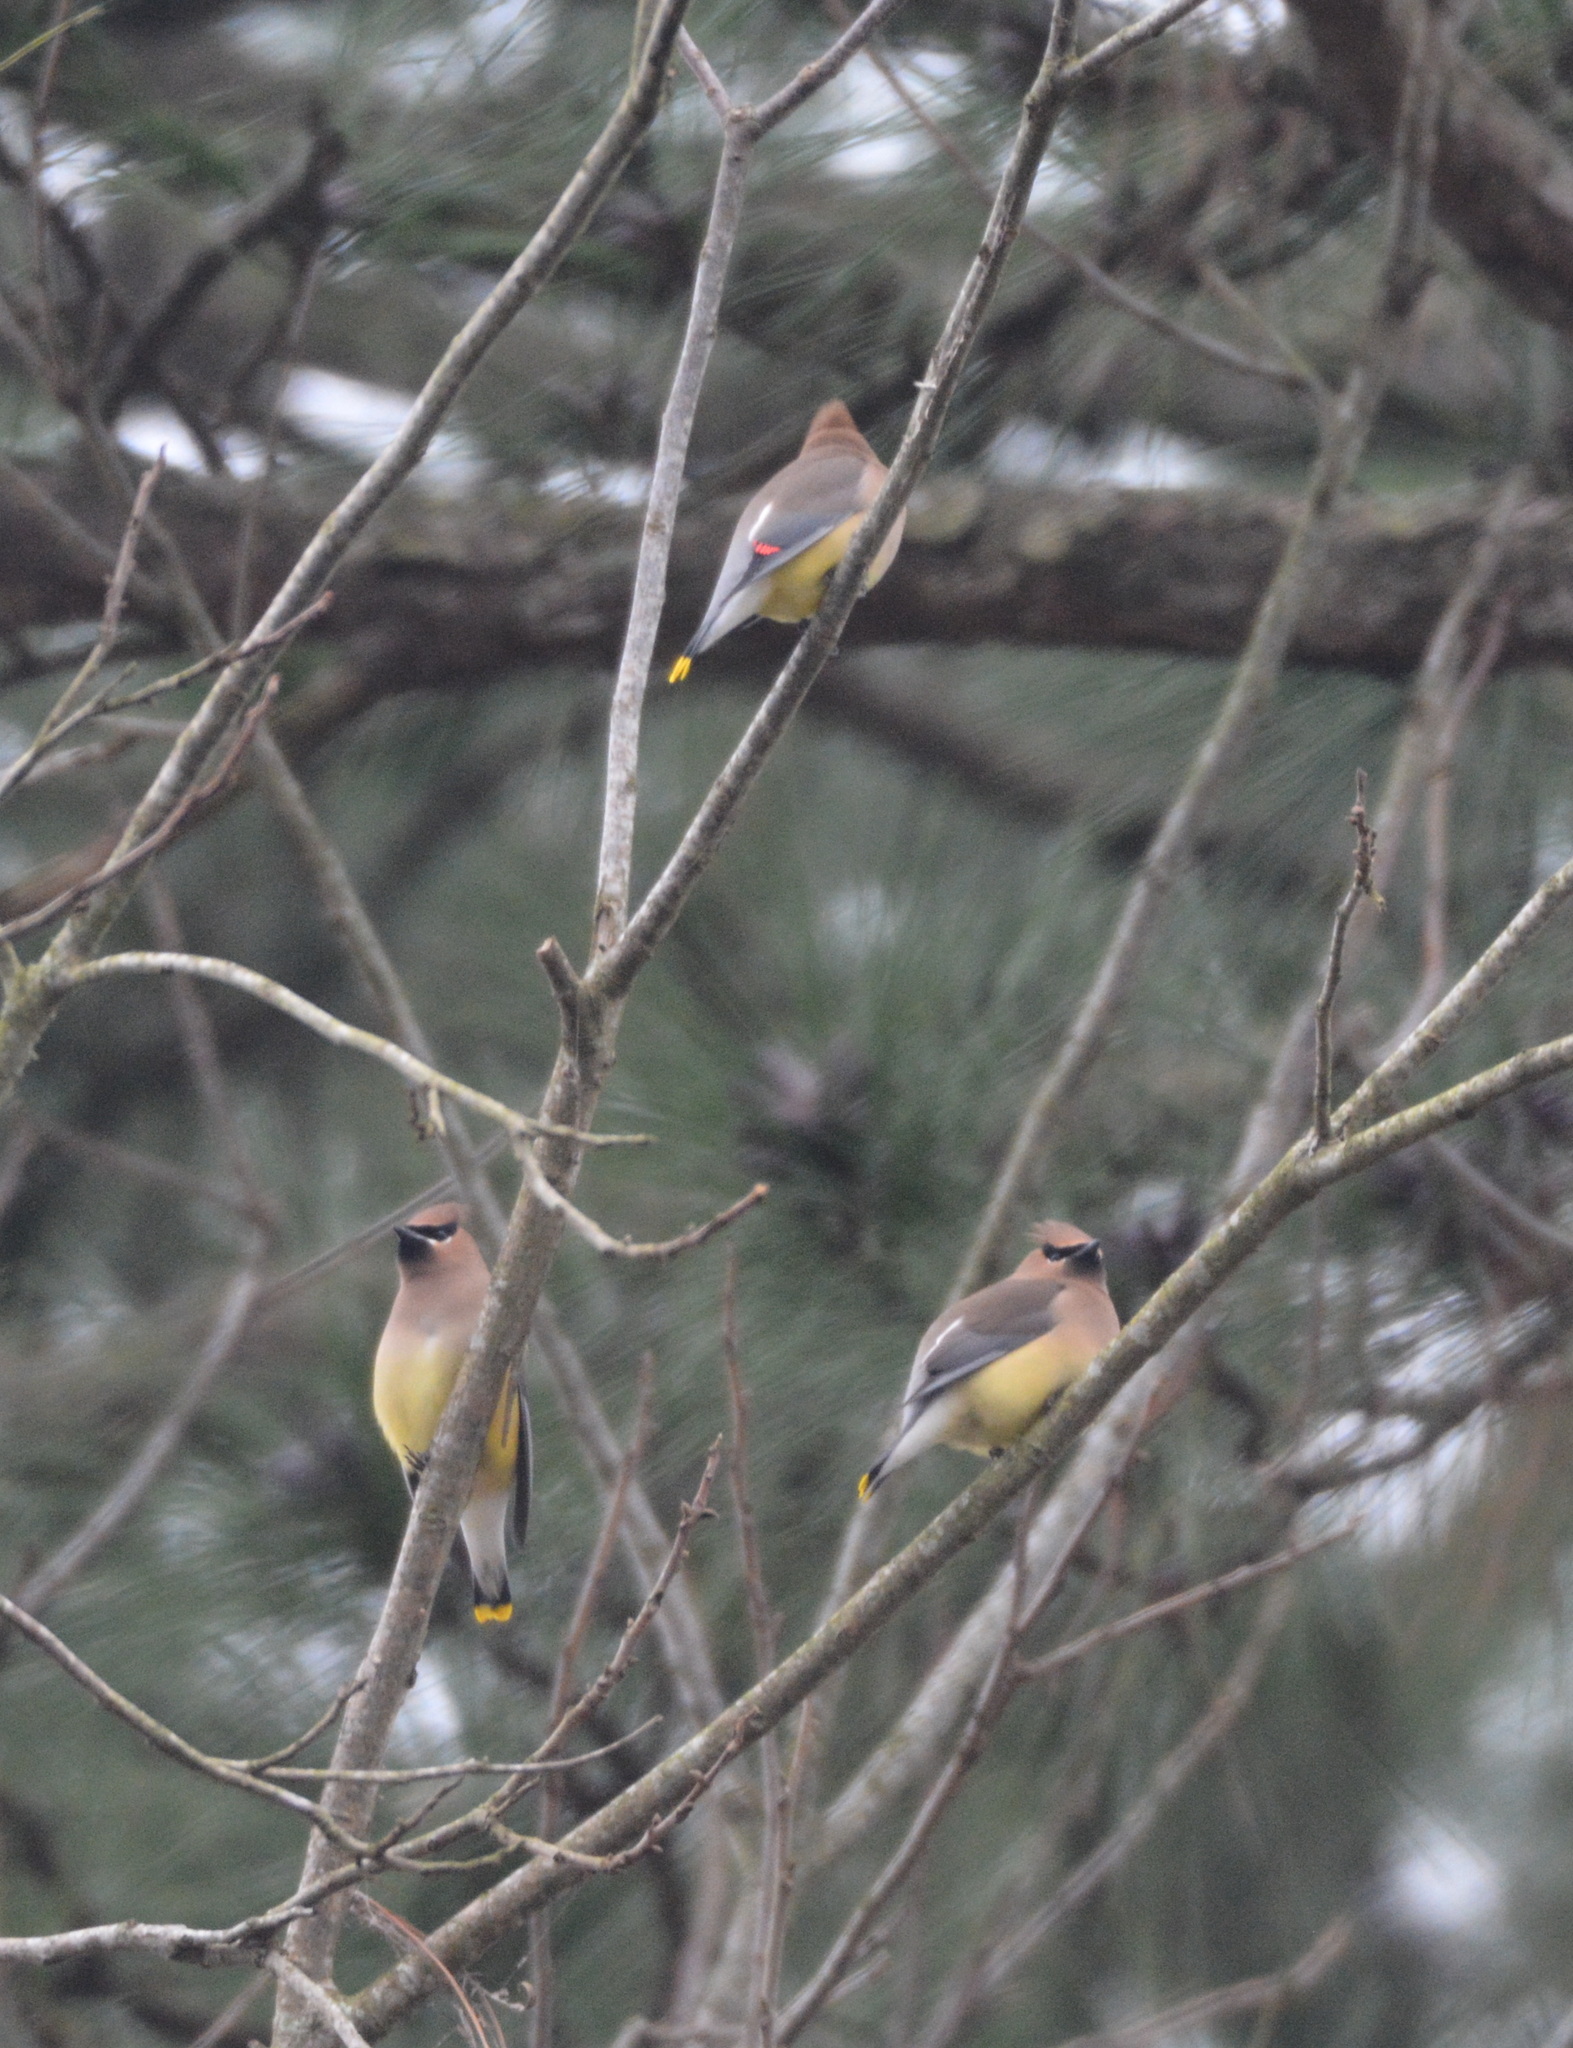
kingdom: Animalia
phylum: Chordata
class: Aves
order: Passeriformes
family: Bombycillidae
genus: Bombycilla
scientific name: Bombycilla cedrorum
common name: Cedar waxwing
